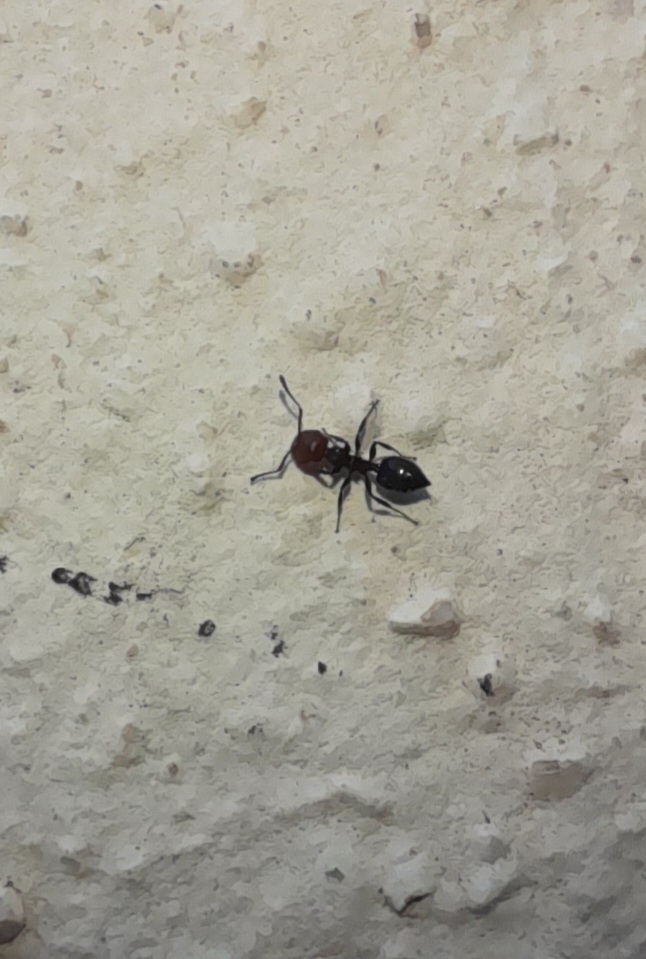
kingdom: Animalia
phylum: Arthropoda
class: Insecta
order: Hymenoptera
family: Formicidae
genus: Crematogaster
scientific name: Crematogaster scutellaris
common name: Fourmi du liège
